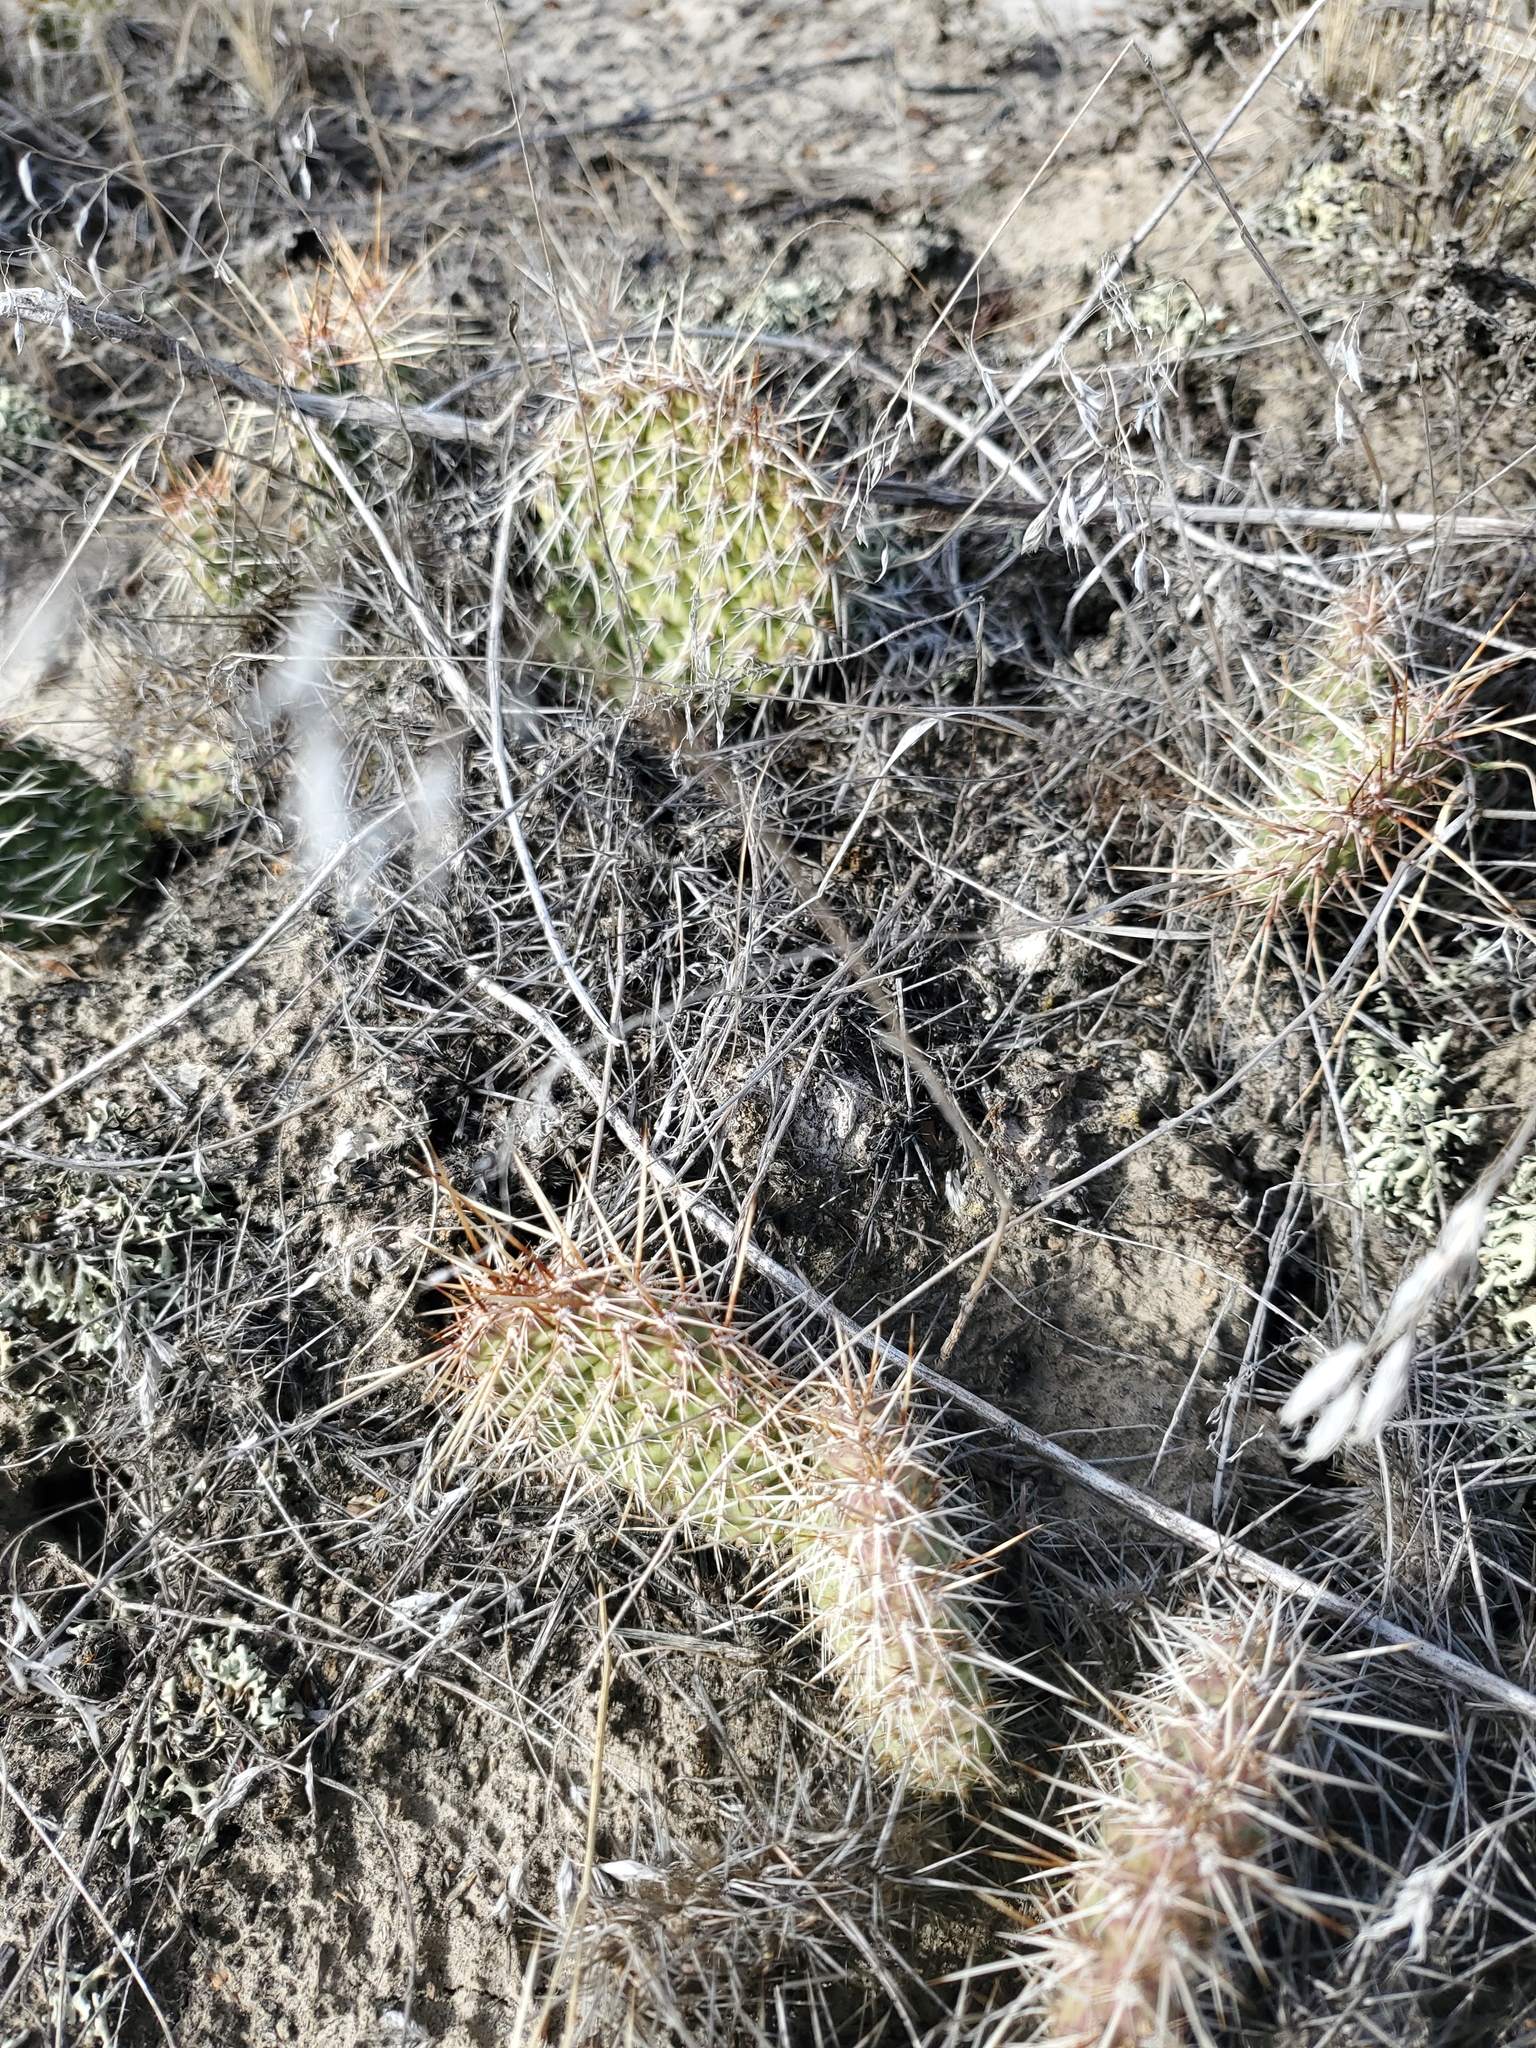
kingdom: Plantae
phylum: Tracheophyta
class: Magnoliopsida
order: Caryophyllales
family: Cactaceae
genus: Opuntia
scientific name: Opuntia polyacantha
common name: Plains prickly-pear
